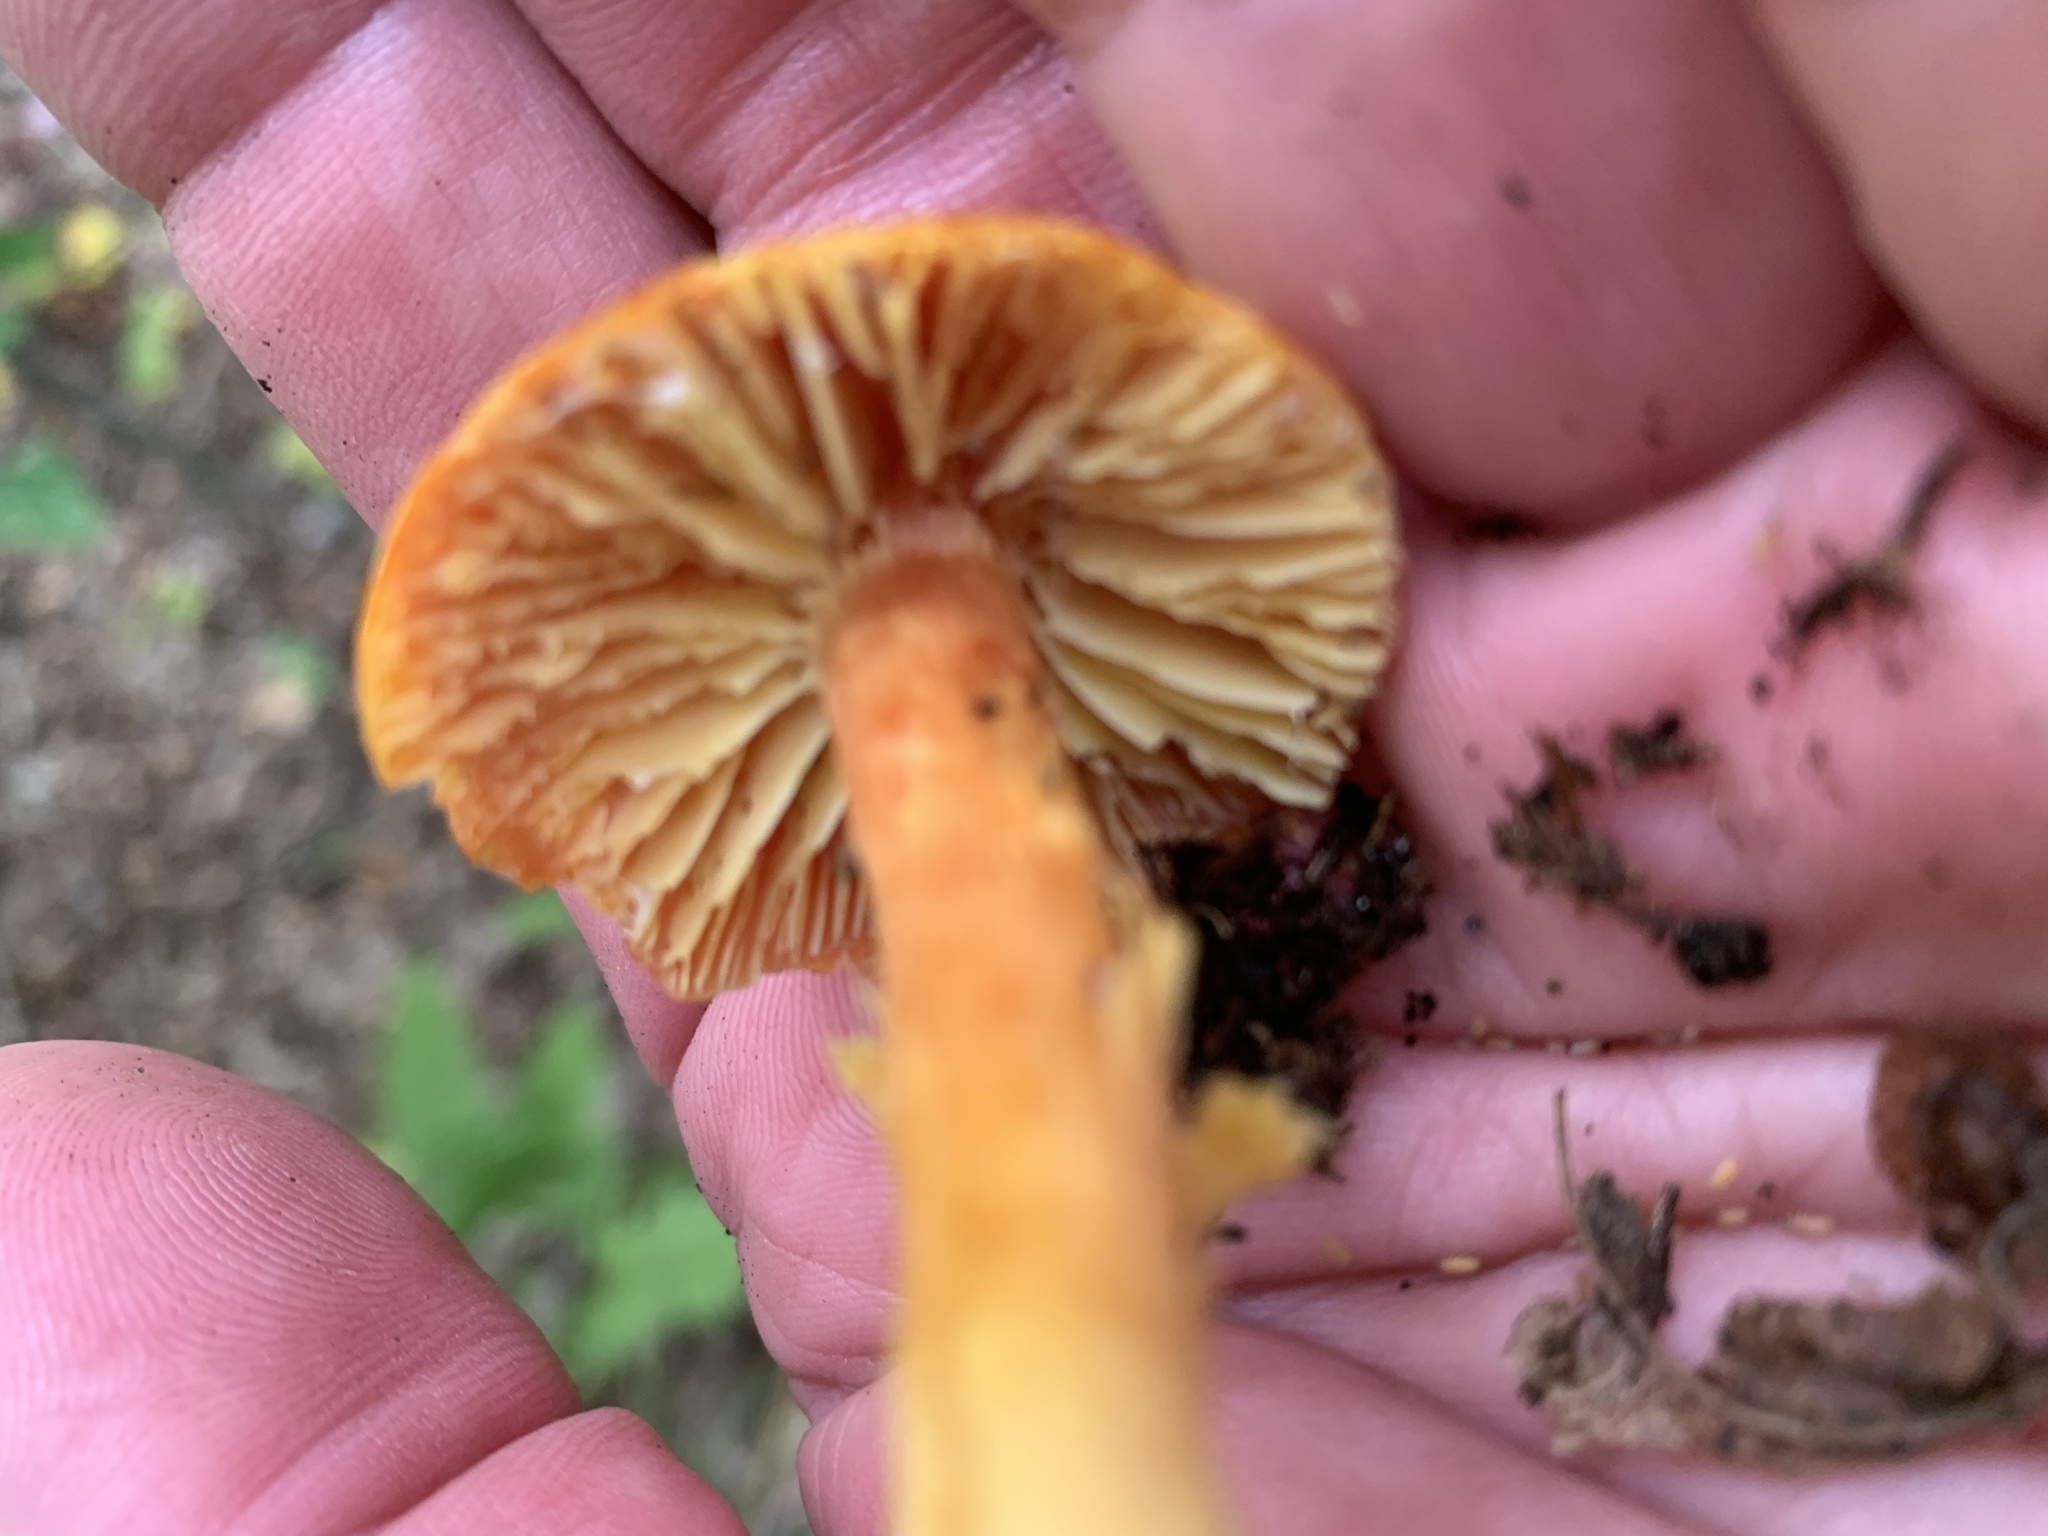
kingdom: Fungi
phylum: Basidiomycota
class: Agaricomycetes
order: Agaricales
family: Hygrophoraceae
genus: Hygrocybe
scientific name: Hygrocybe punicea
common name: Crimson waxcap
